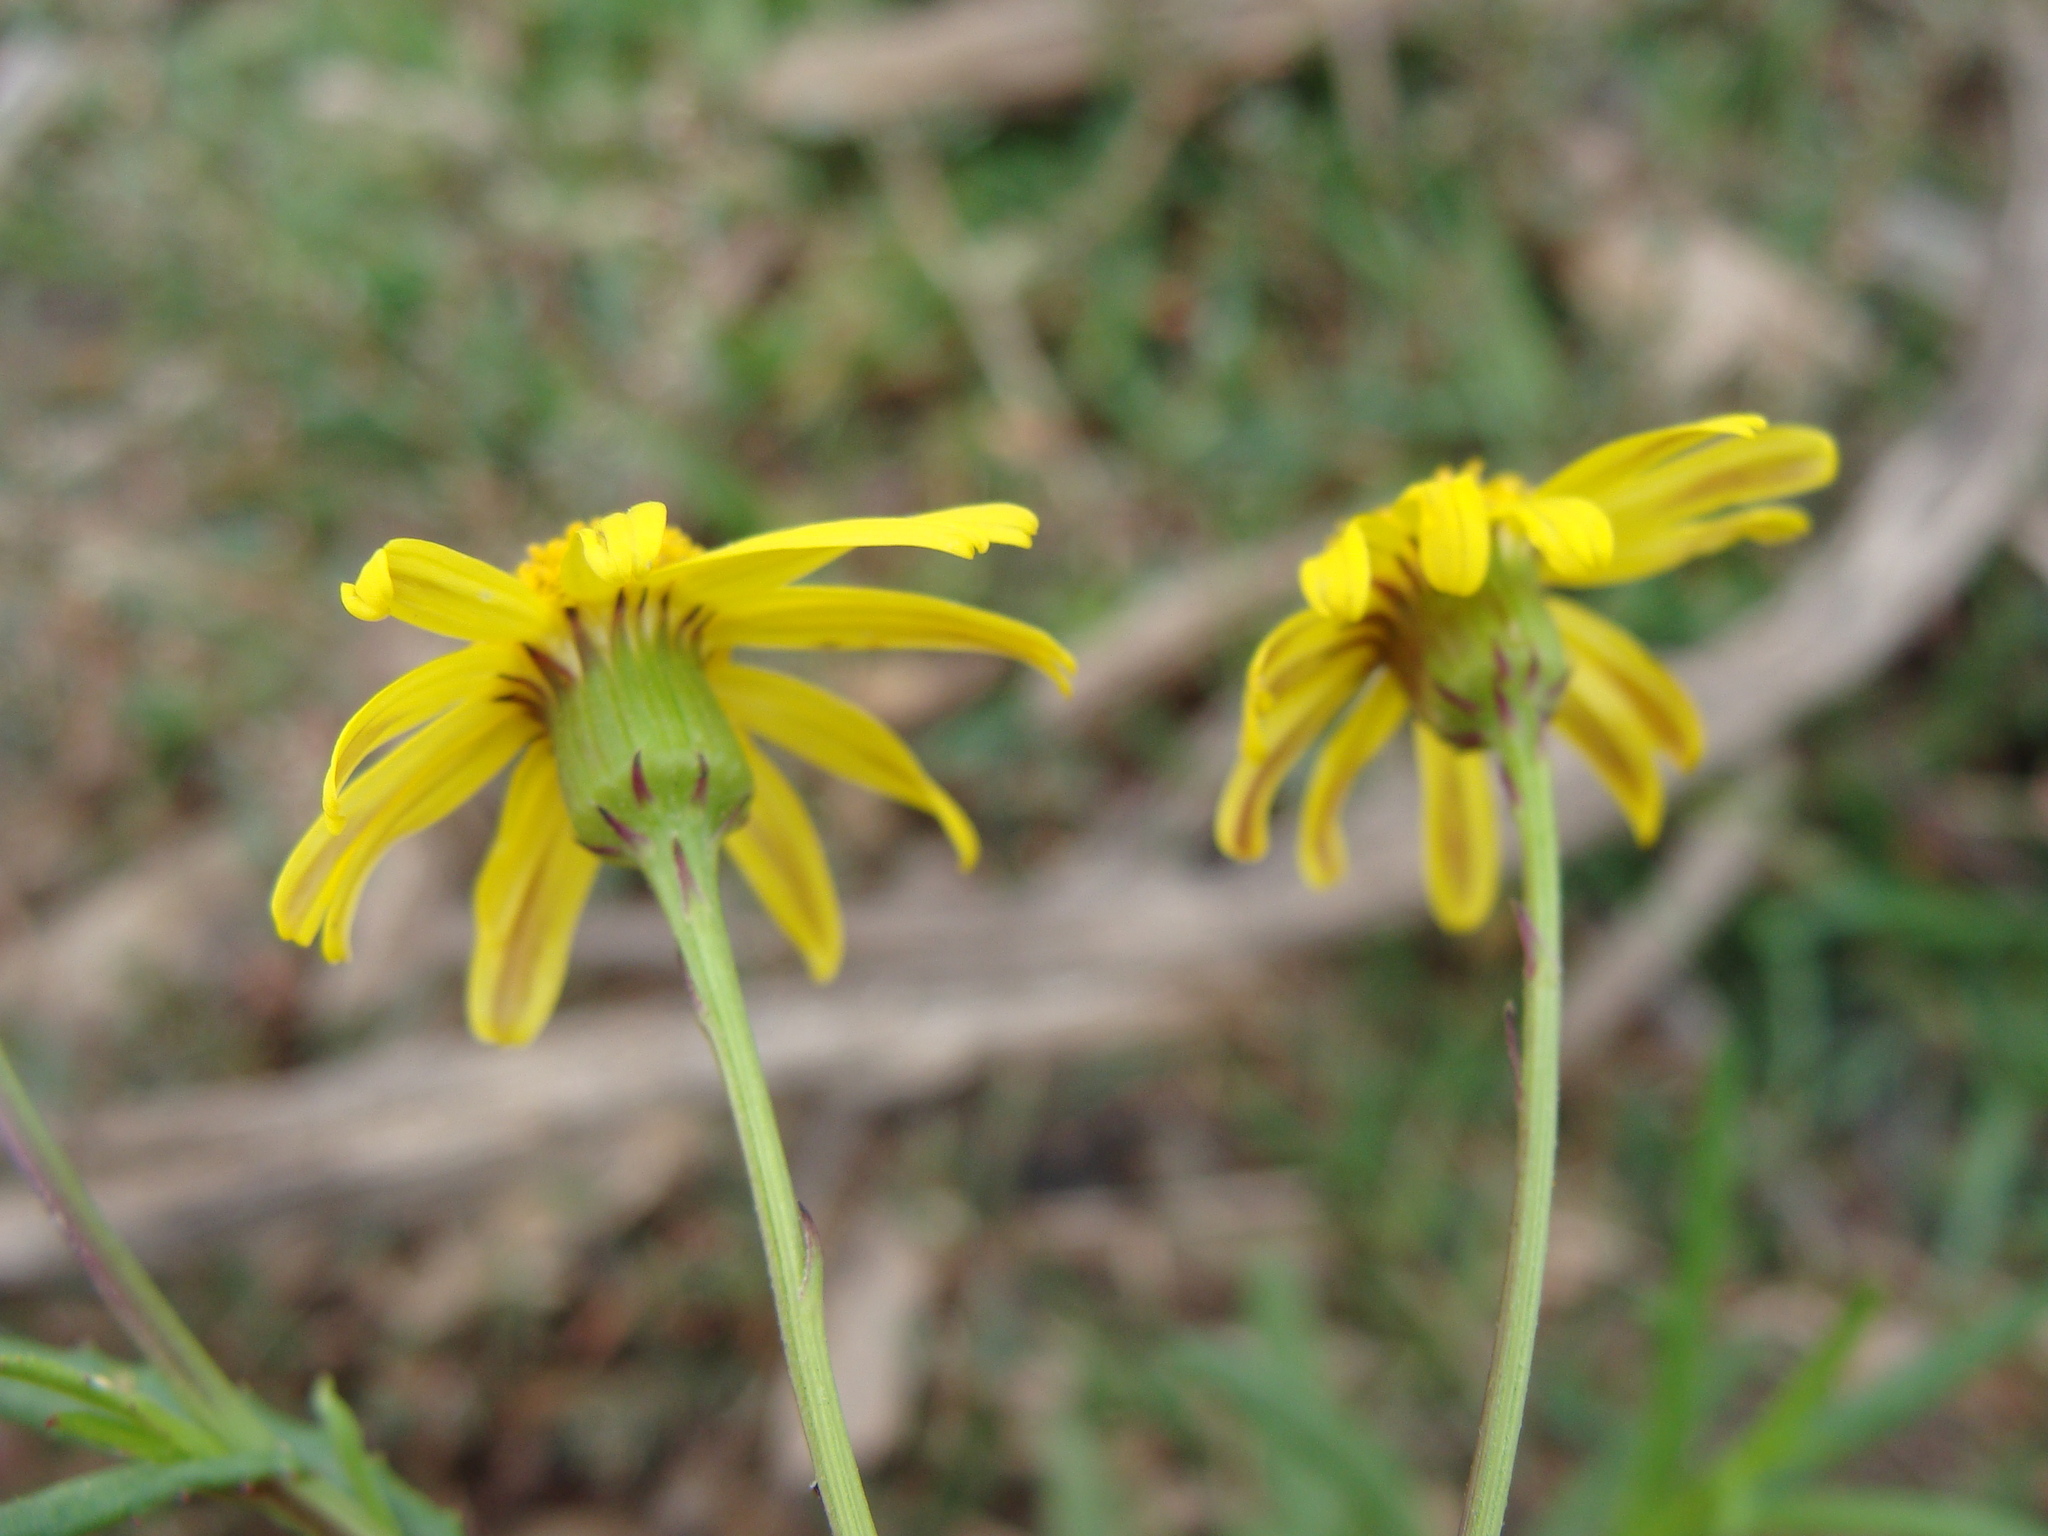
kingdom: Plantae
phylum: Tracheophyta
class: Magnoliopsida
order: Asterales
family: Asteraceae
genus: Senecio
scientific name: Senecio inaequidens
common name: Narrow-leaved ragwort
